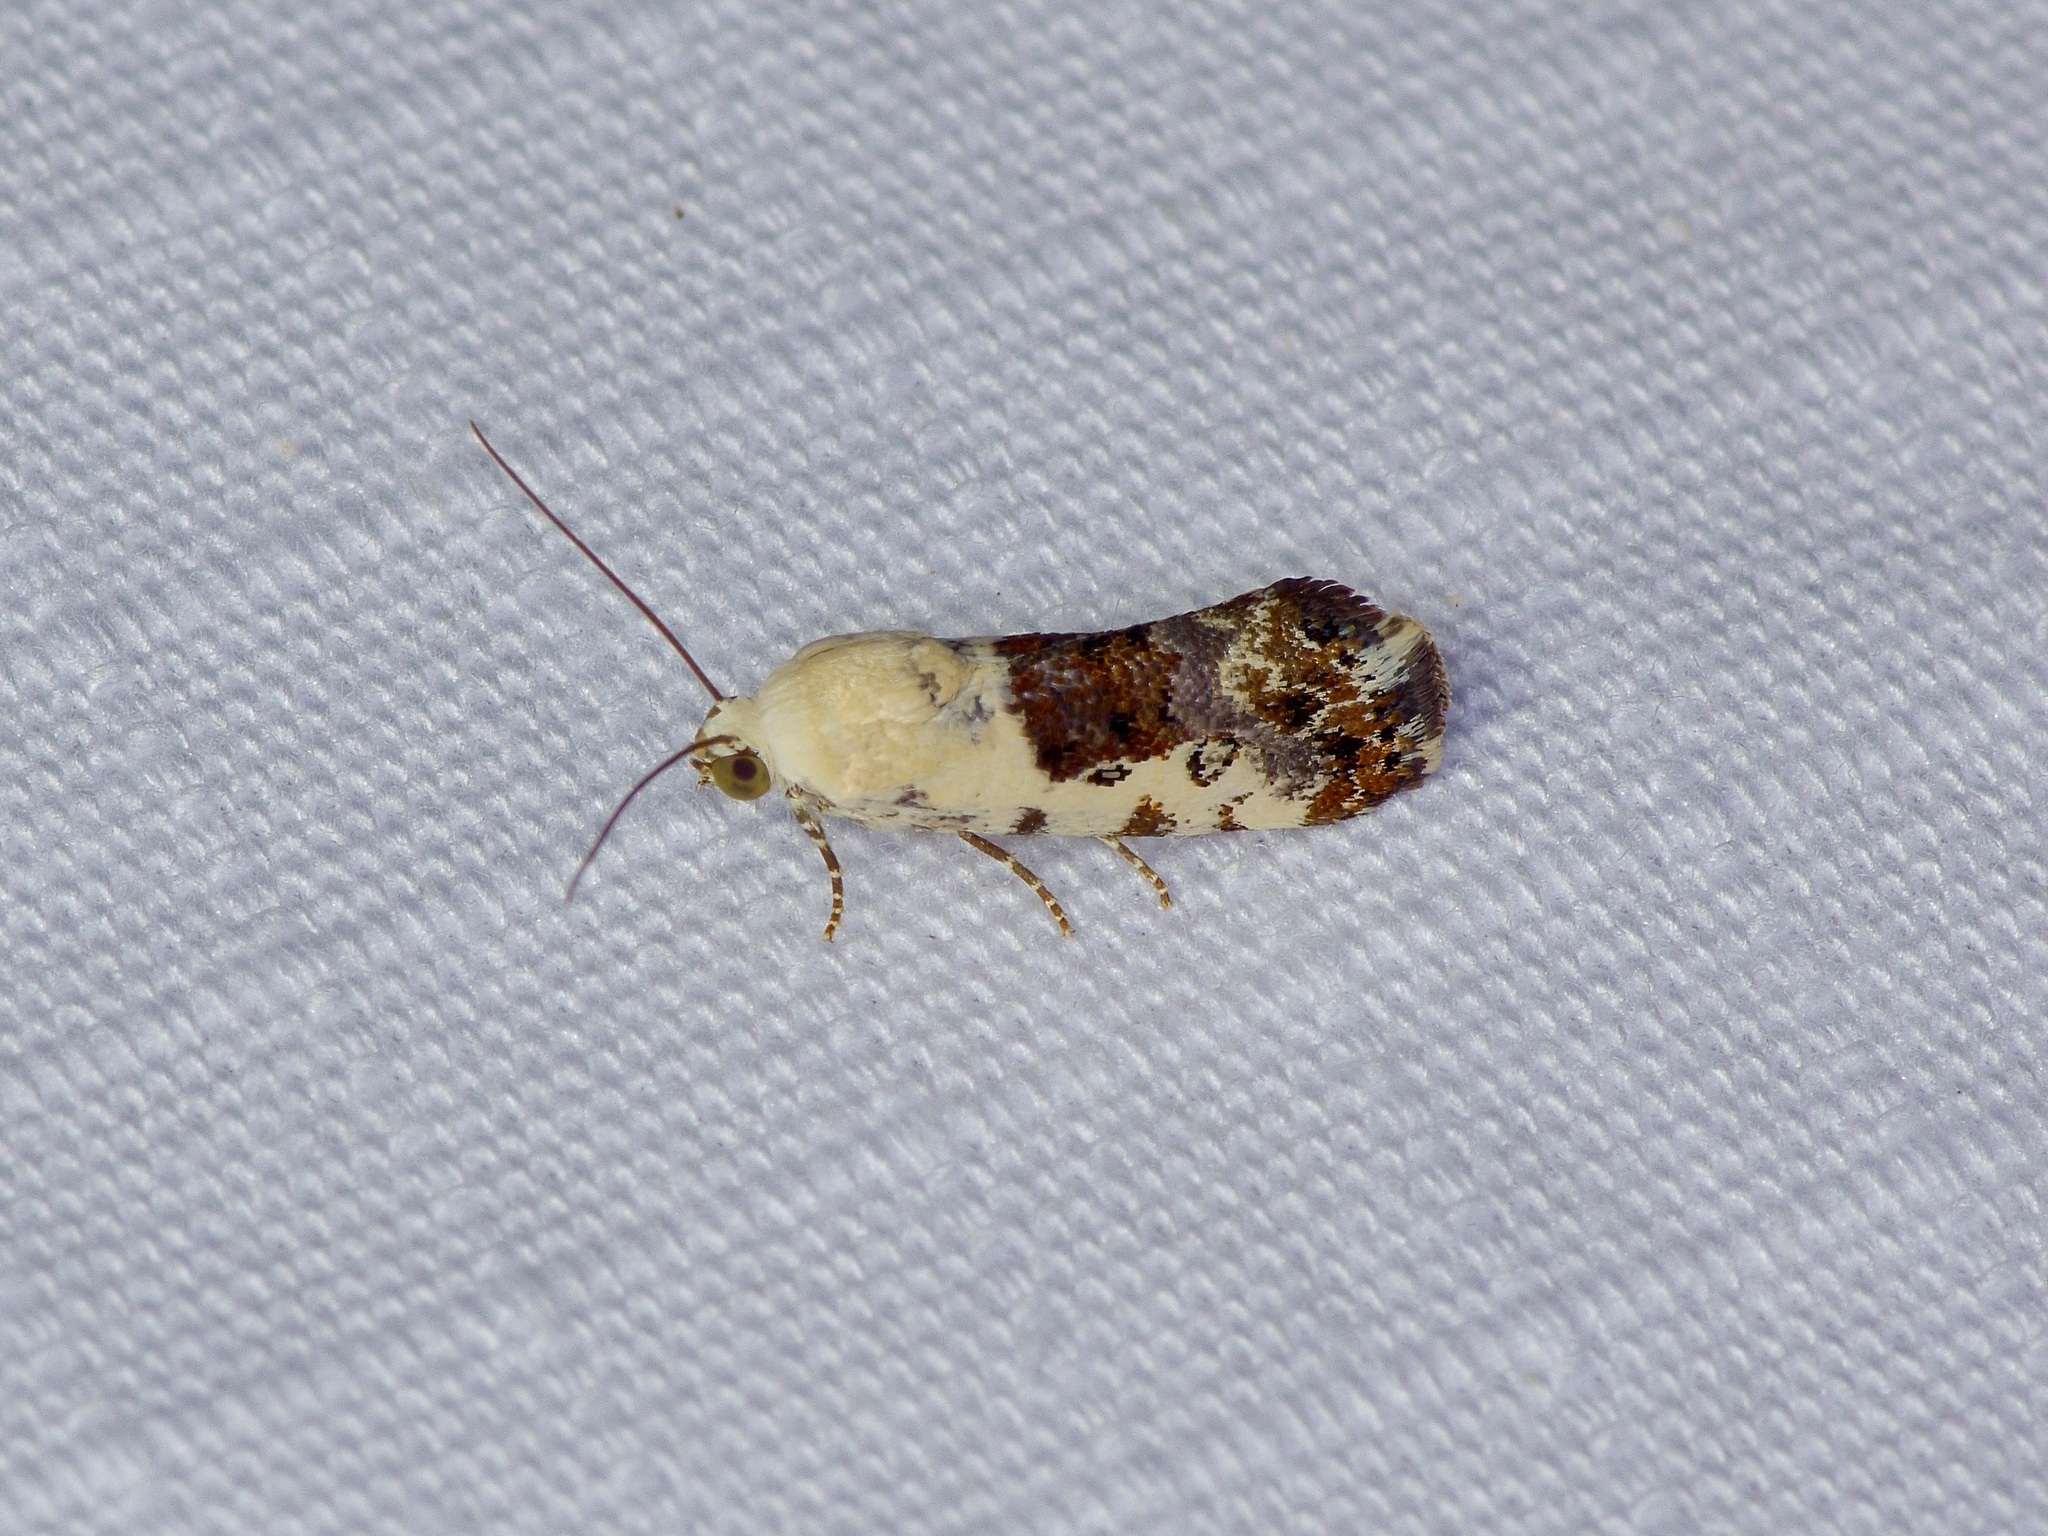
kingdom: Animalia
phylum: Arthropoda
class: Insecta
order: Lepidoptera
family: Noctuidae
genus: Acontia
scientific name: Acontia phecolisca
